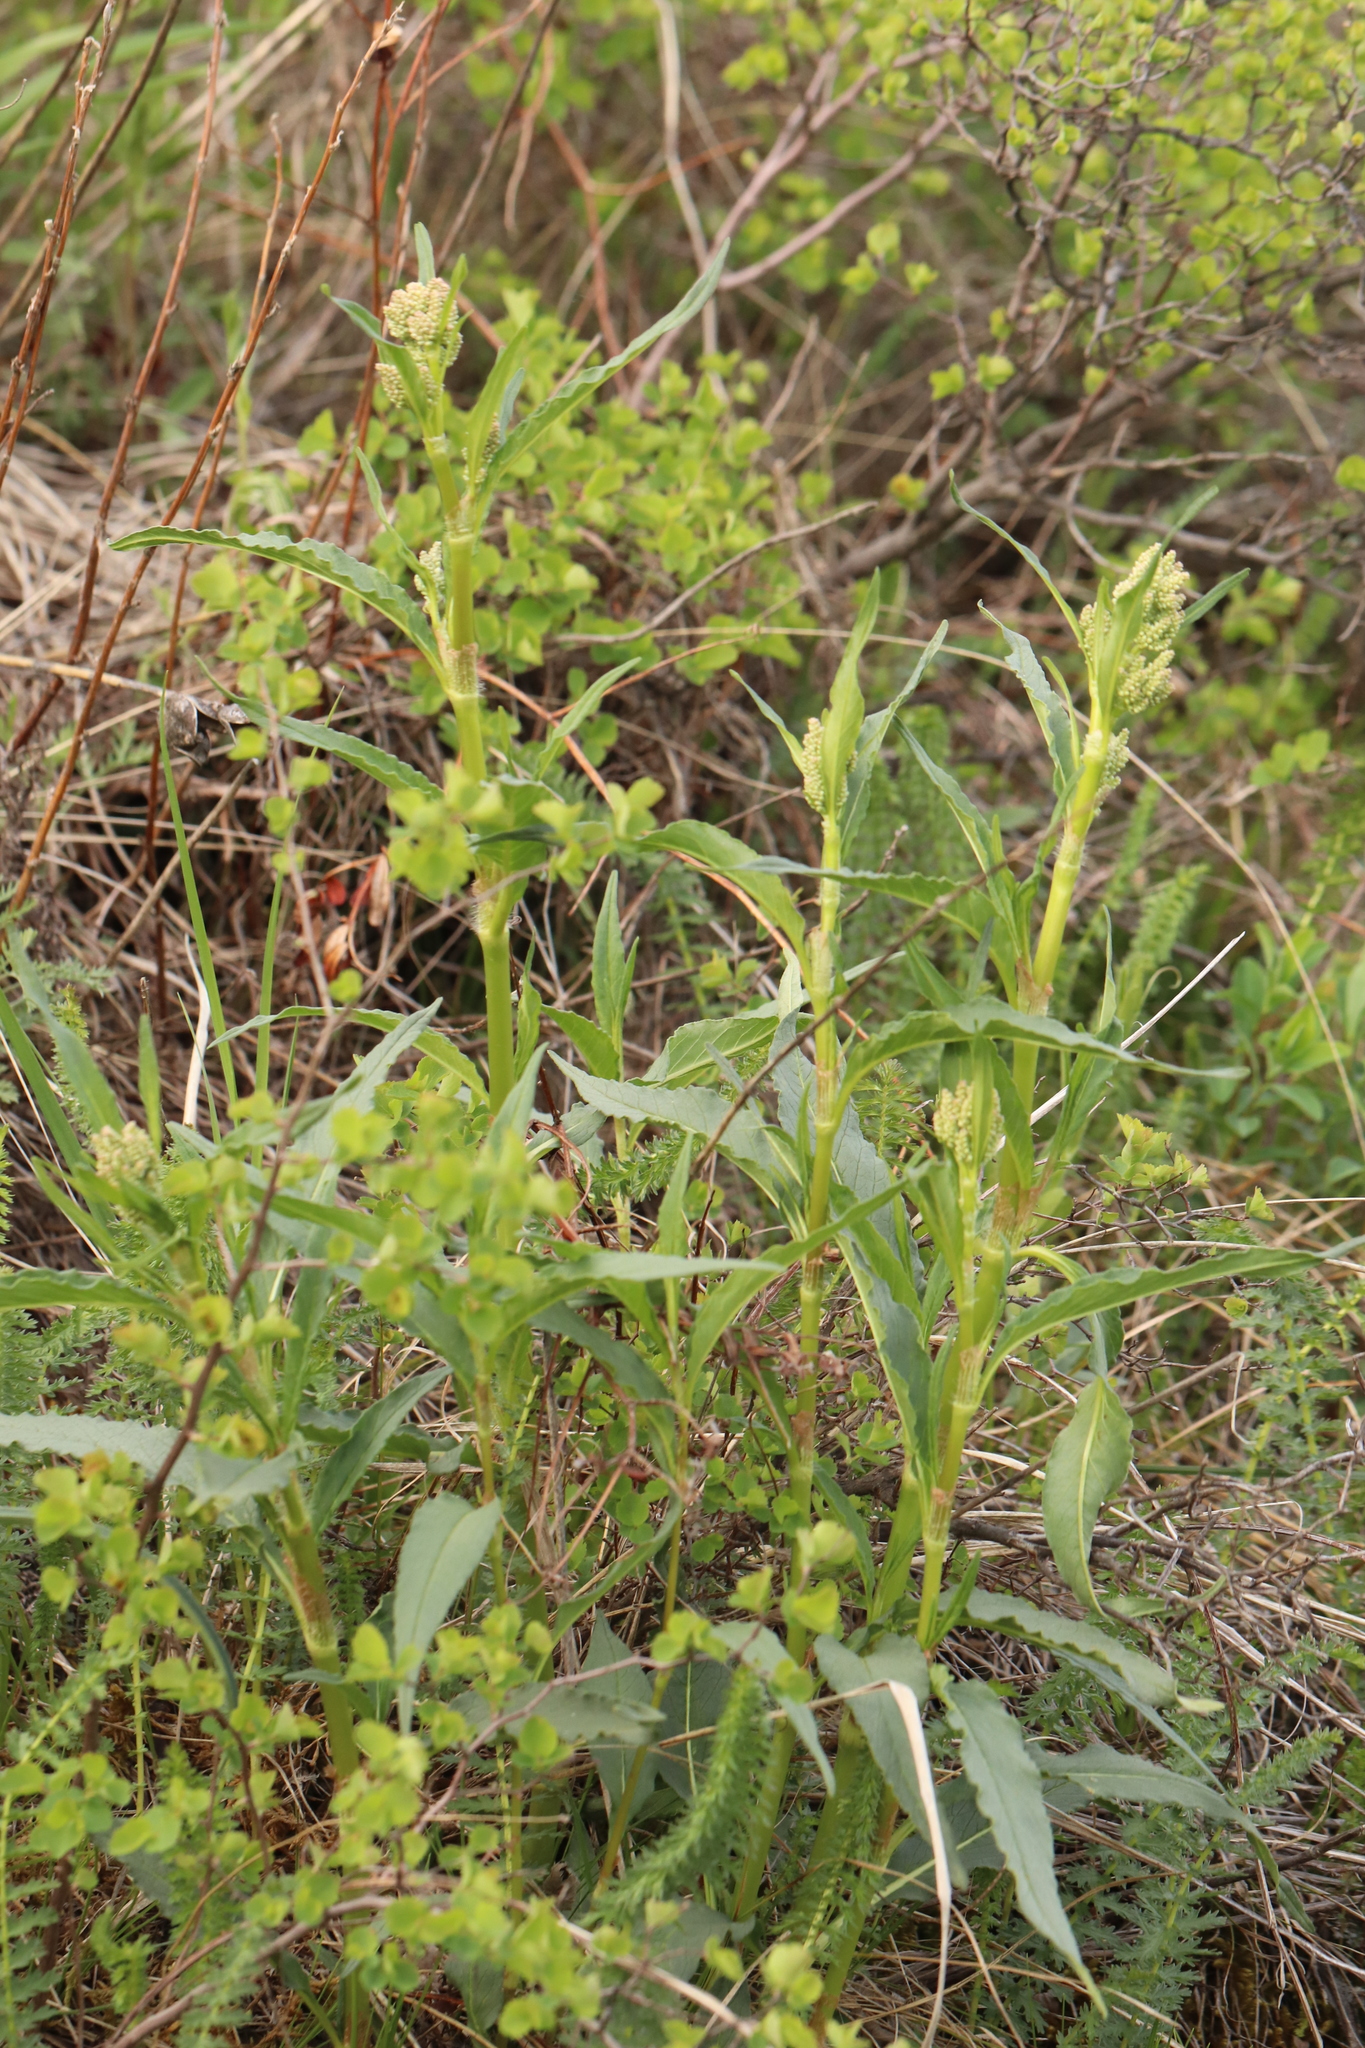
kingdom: Plantae
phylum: Tracheophyta
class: Magnoliopsida
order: Caryophyllales
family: Polygonaceae
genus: Koenigia
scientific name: Koenigia alpina
